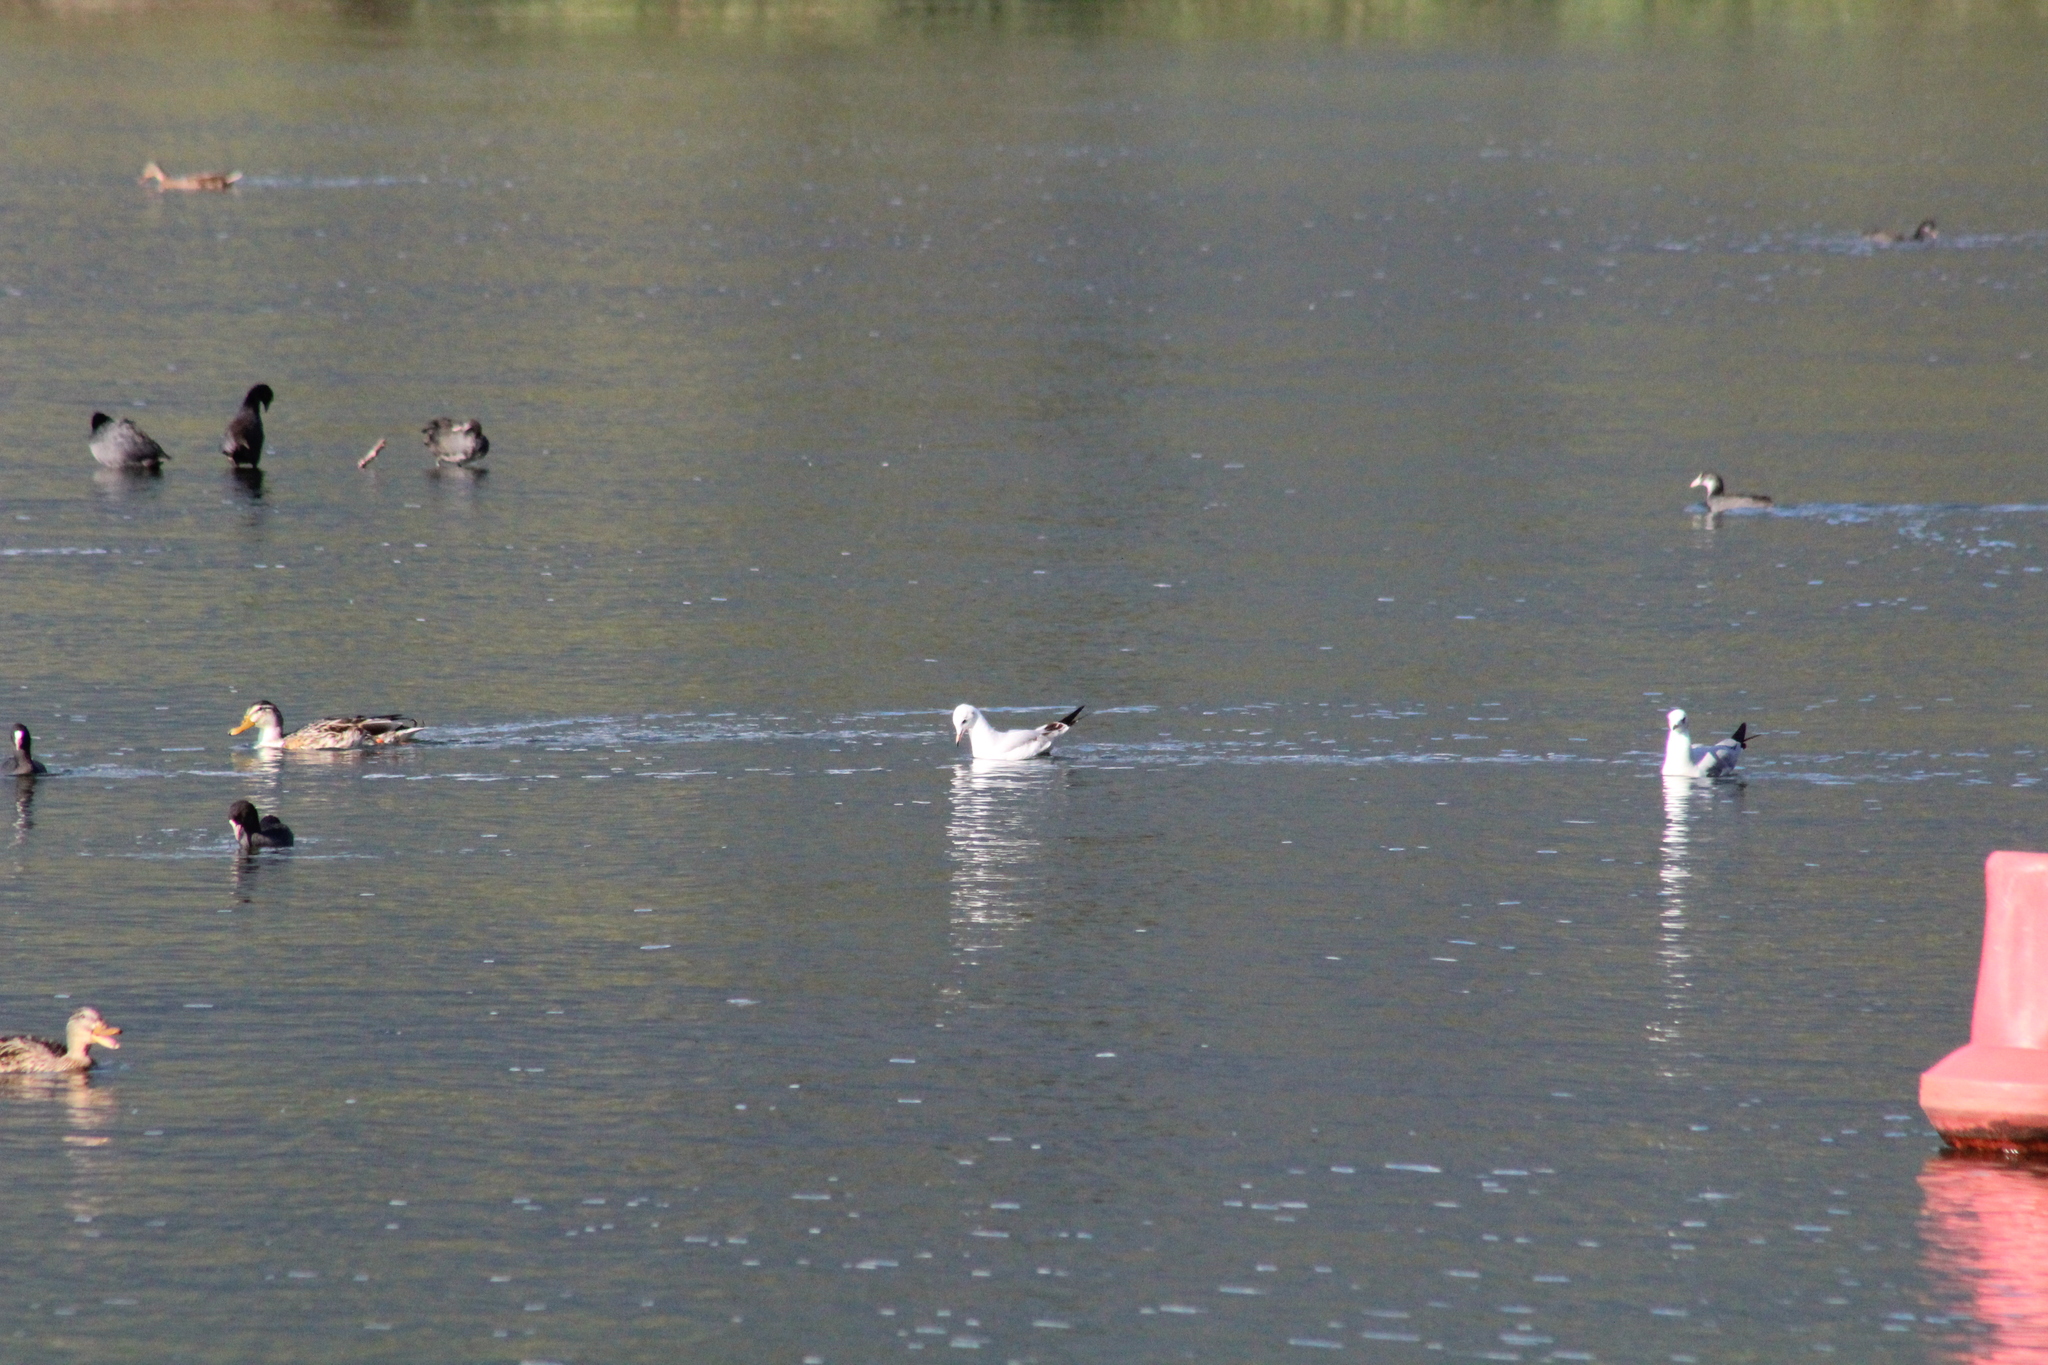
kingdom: Animalia
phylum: Chordata
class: Aves
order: Charadriiformes
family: Laridae
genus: Chroicocephalus
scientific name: Chroicocephalus ridibundus
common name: Black-headed gull
